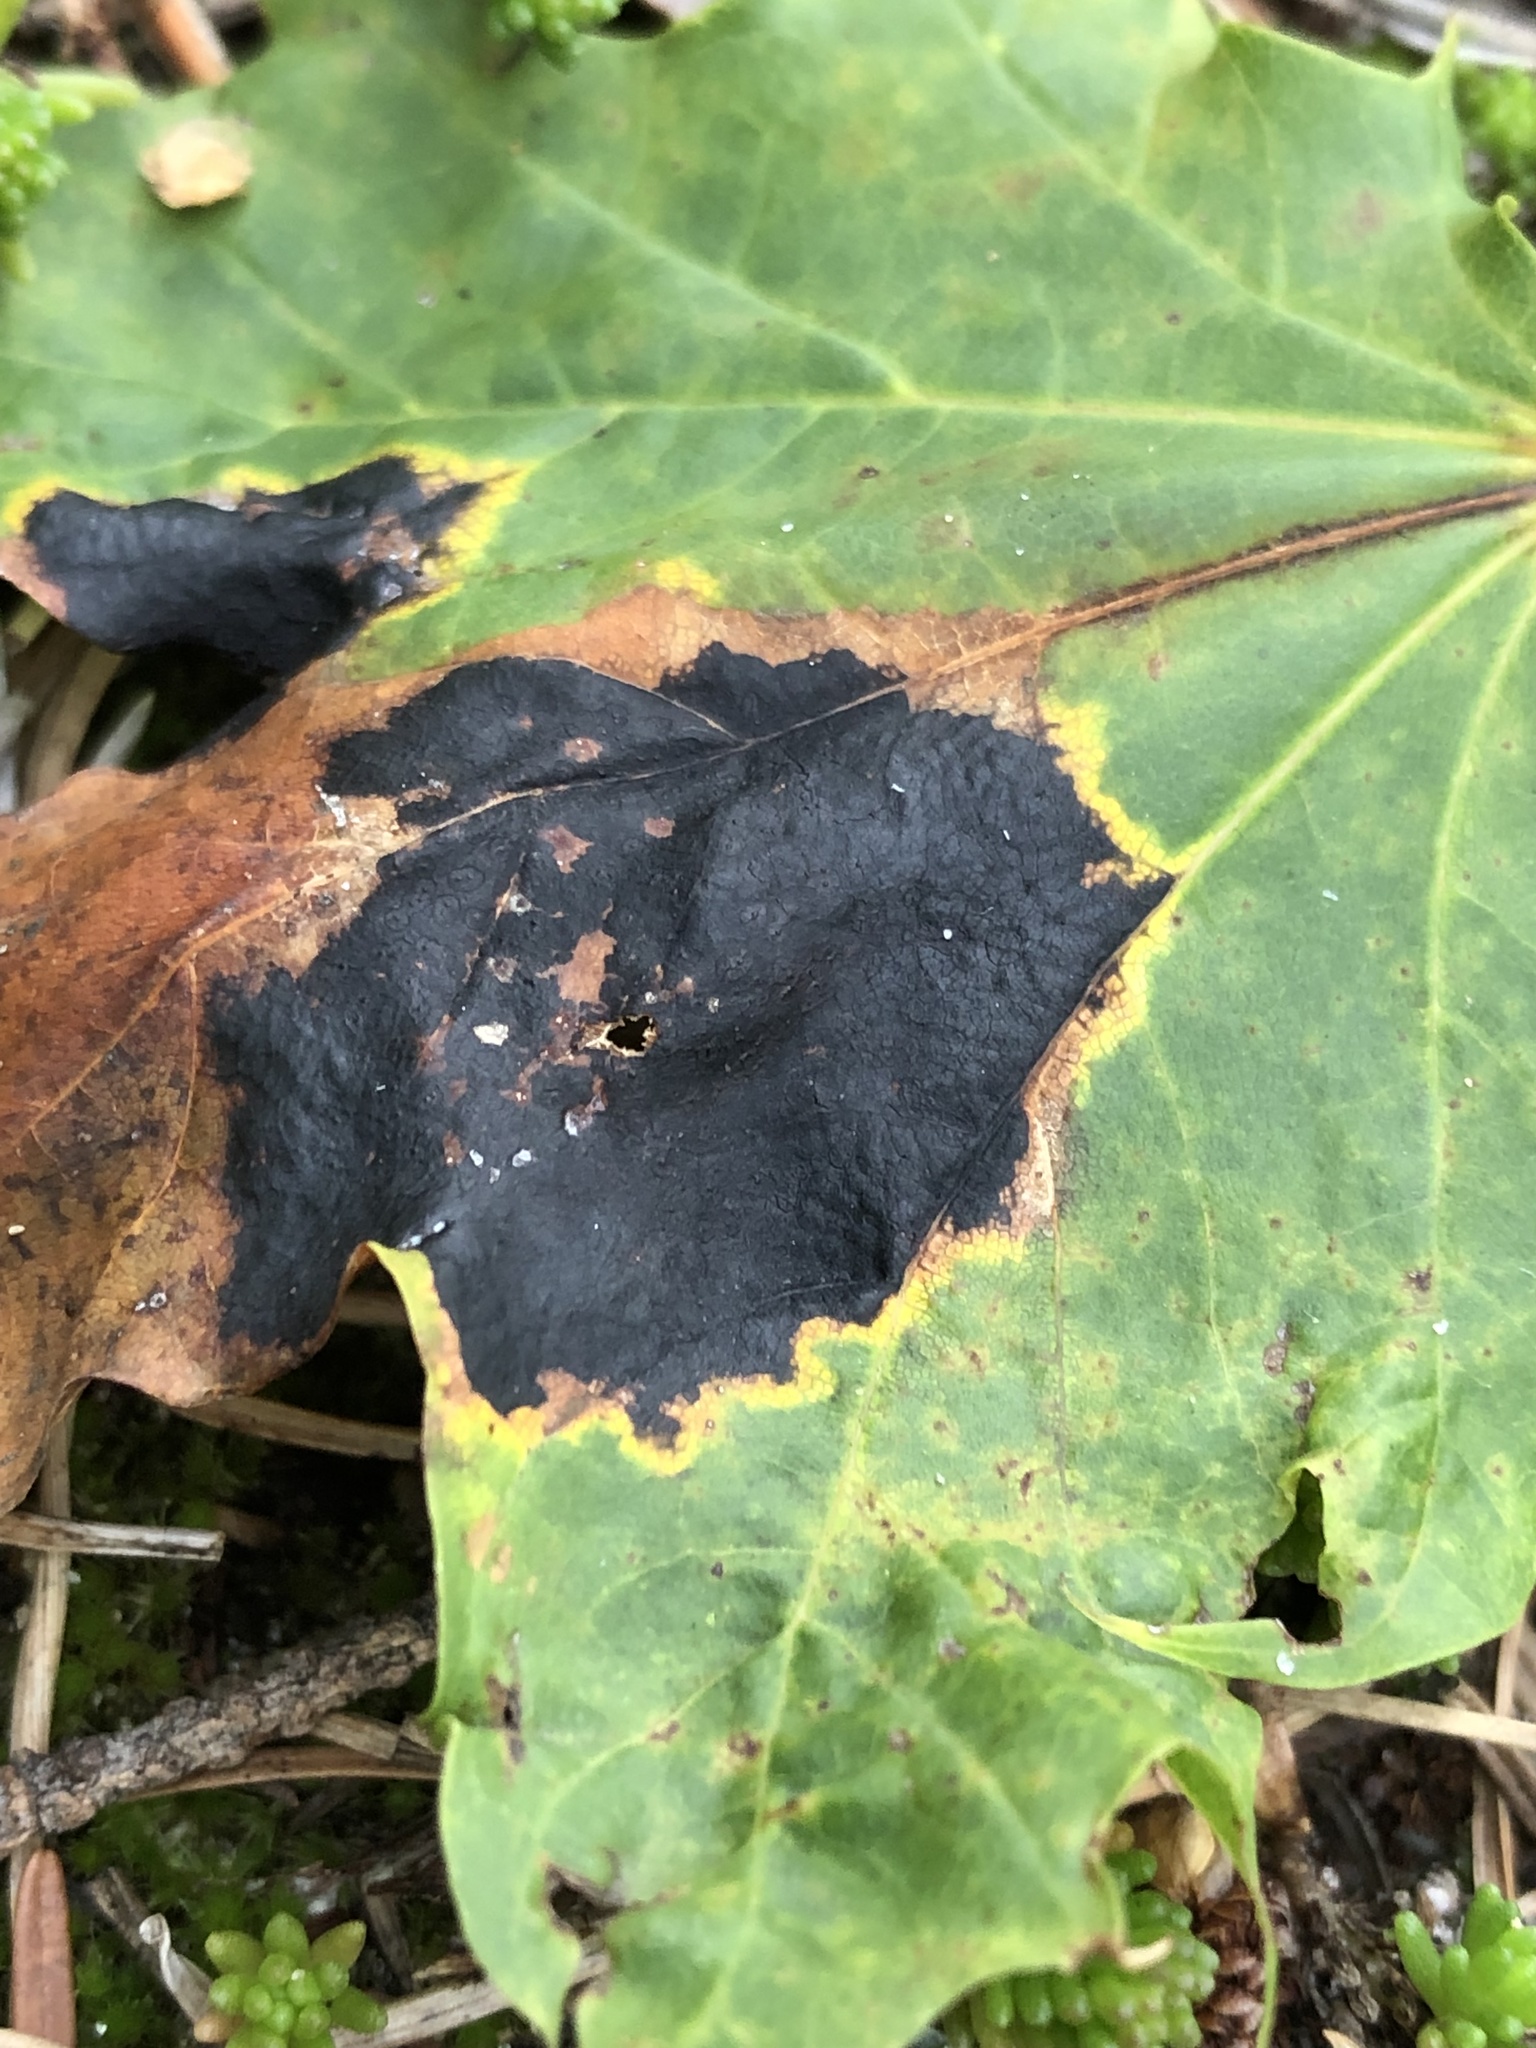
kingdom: Fungi
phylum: Ascomycota
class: Leotiomycetes
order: Rhytismatales
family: Rhytismataceae
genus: Rhytisma
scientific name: Rhytisma acerinum
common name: European tar spot
